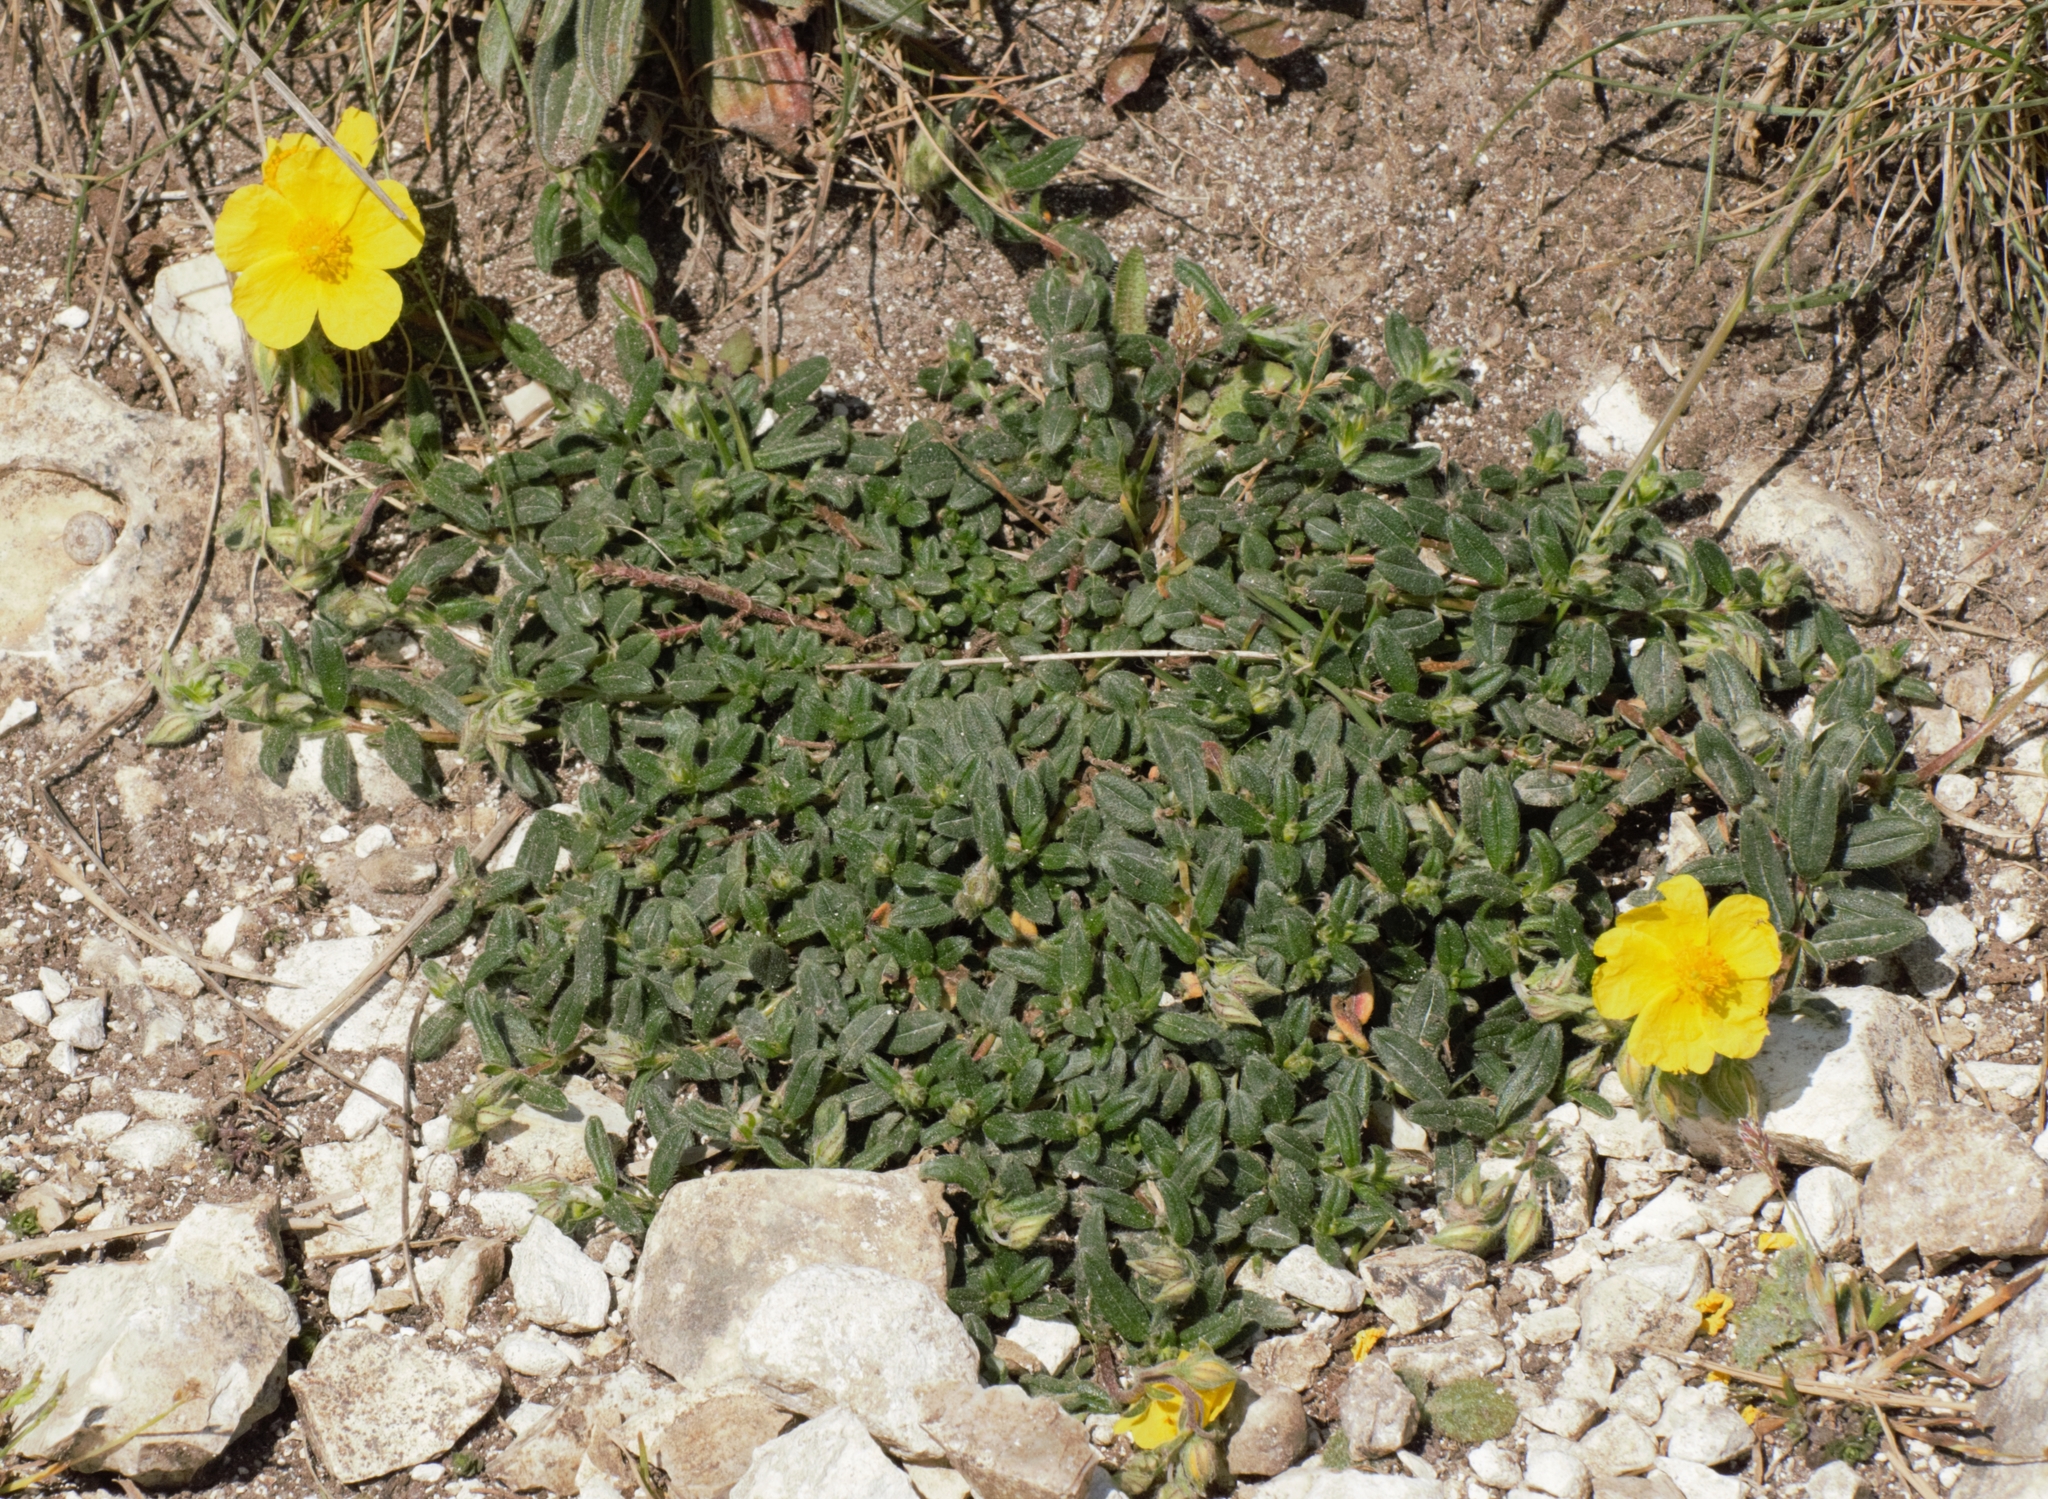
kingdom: Plantae
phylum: Tracheophyta
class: Magnoliopsida
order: Malvales
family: Cistaceae
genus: Helianthemum
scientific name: Helianthemum nummularium
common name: Common rock-rose
